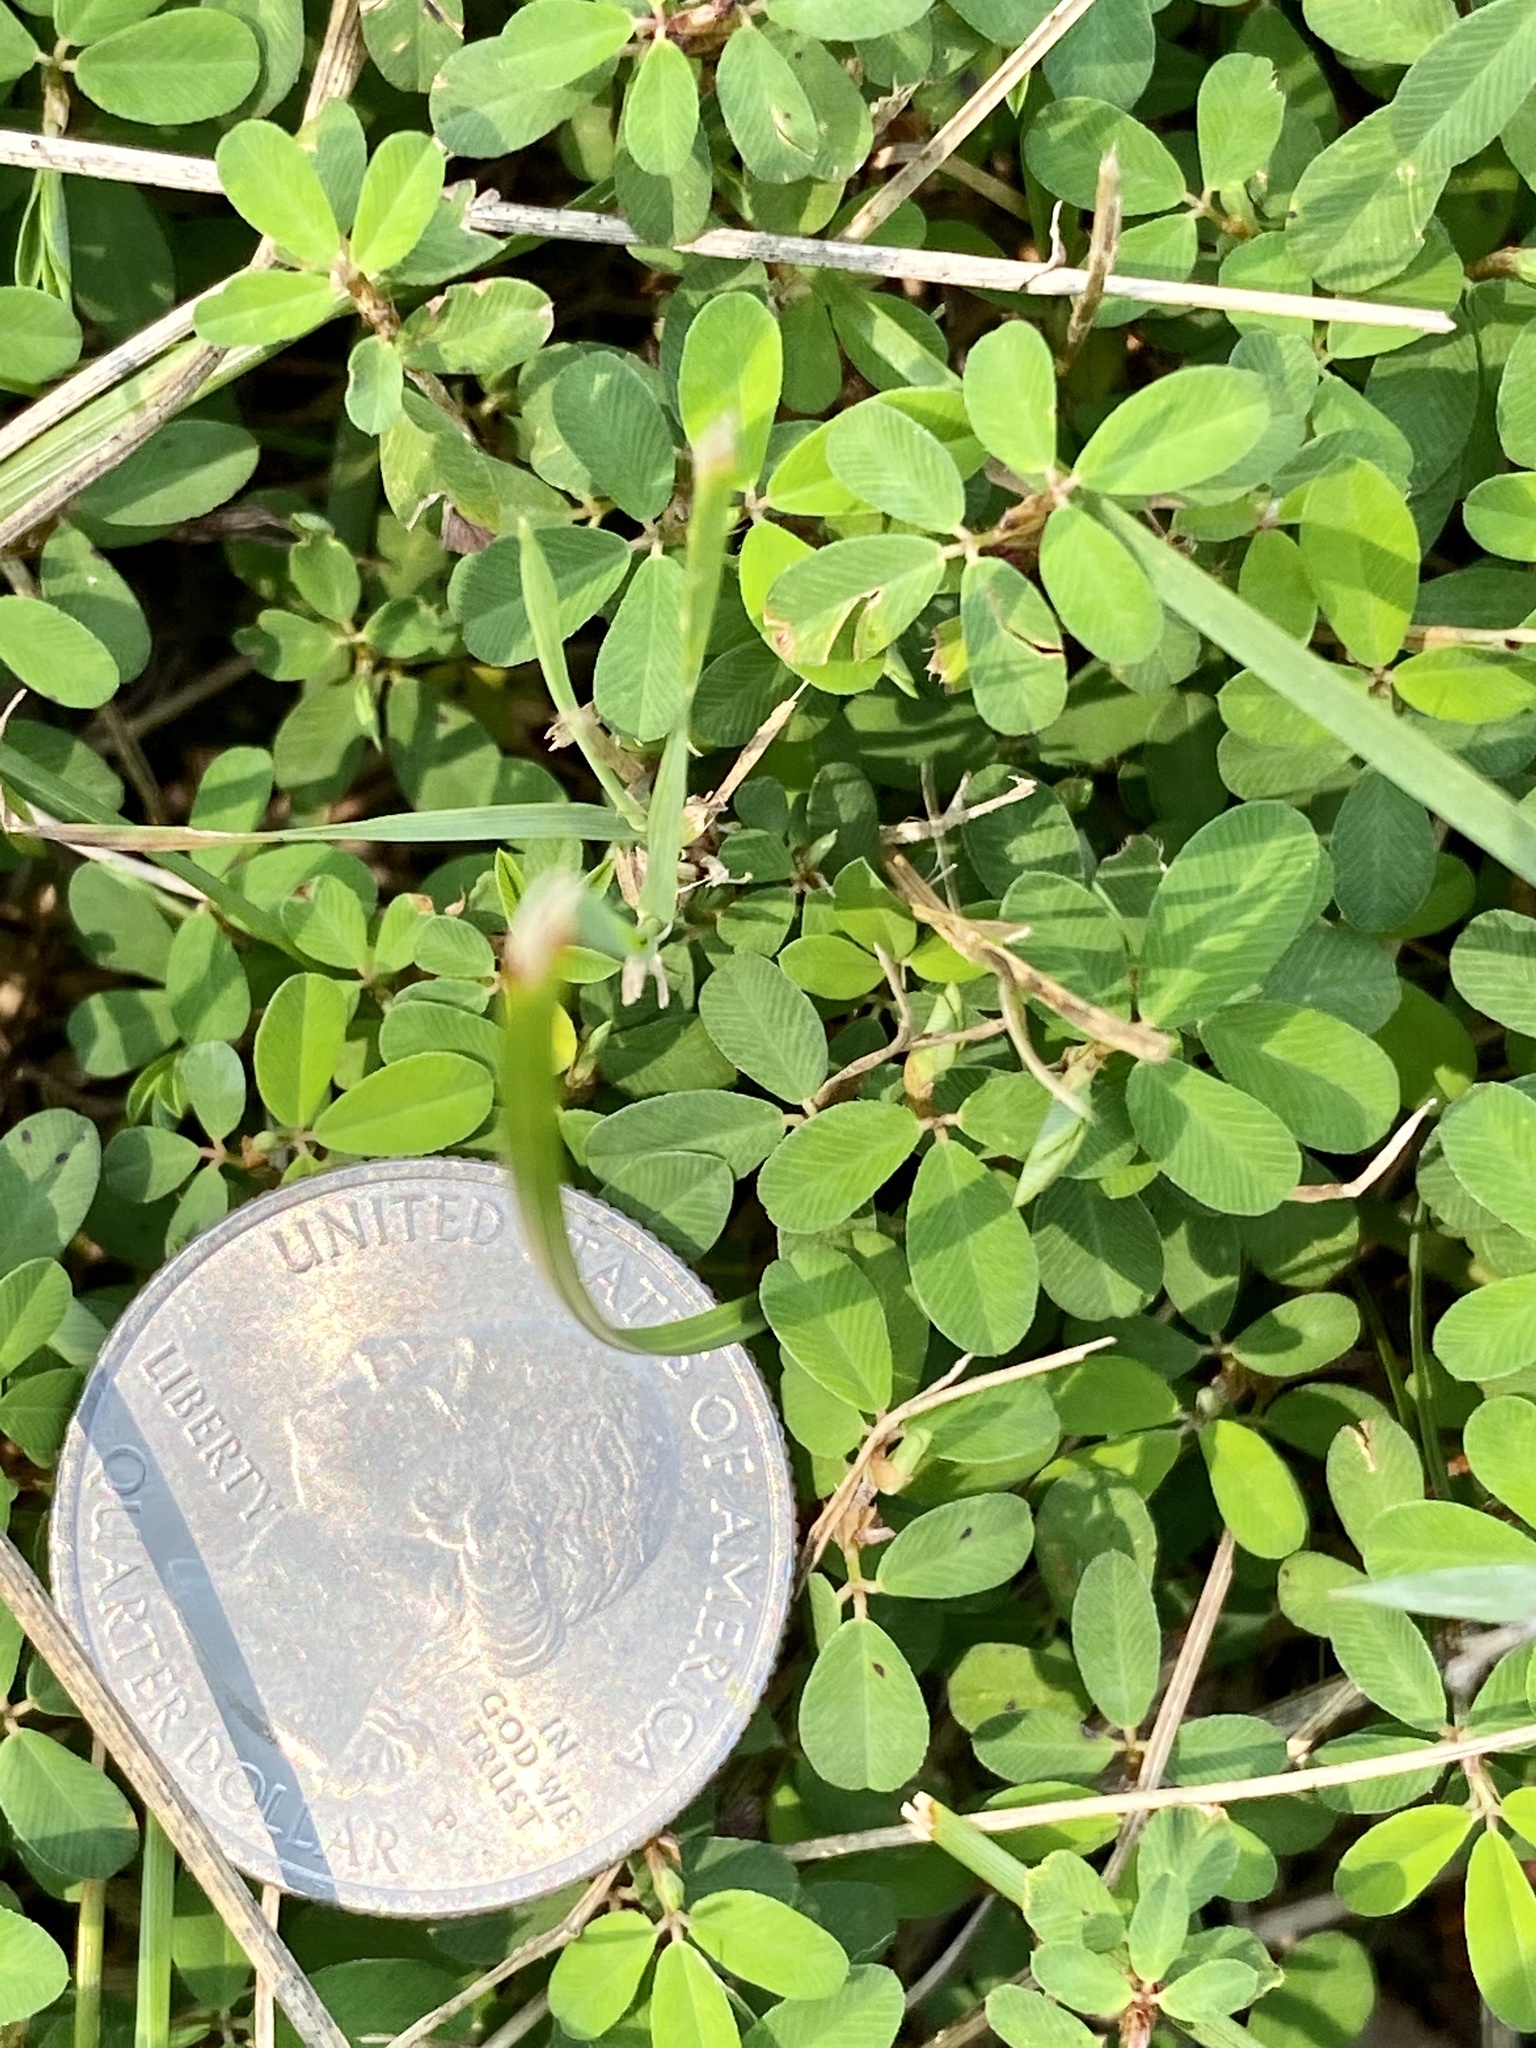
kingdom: Plantae
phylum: Tracheophyta
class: Magnoliopsida
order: Fabales
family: Fabaceae
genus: Kummerowia
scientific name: Kummerowia striata
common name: Japanese clover
